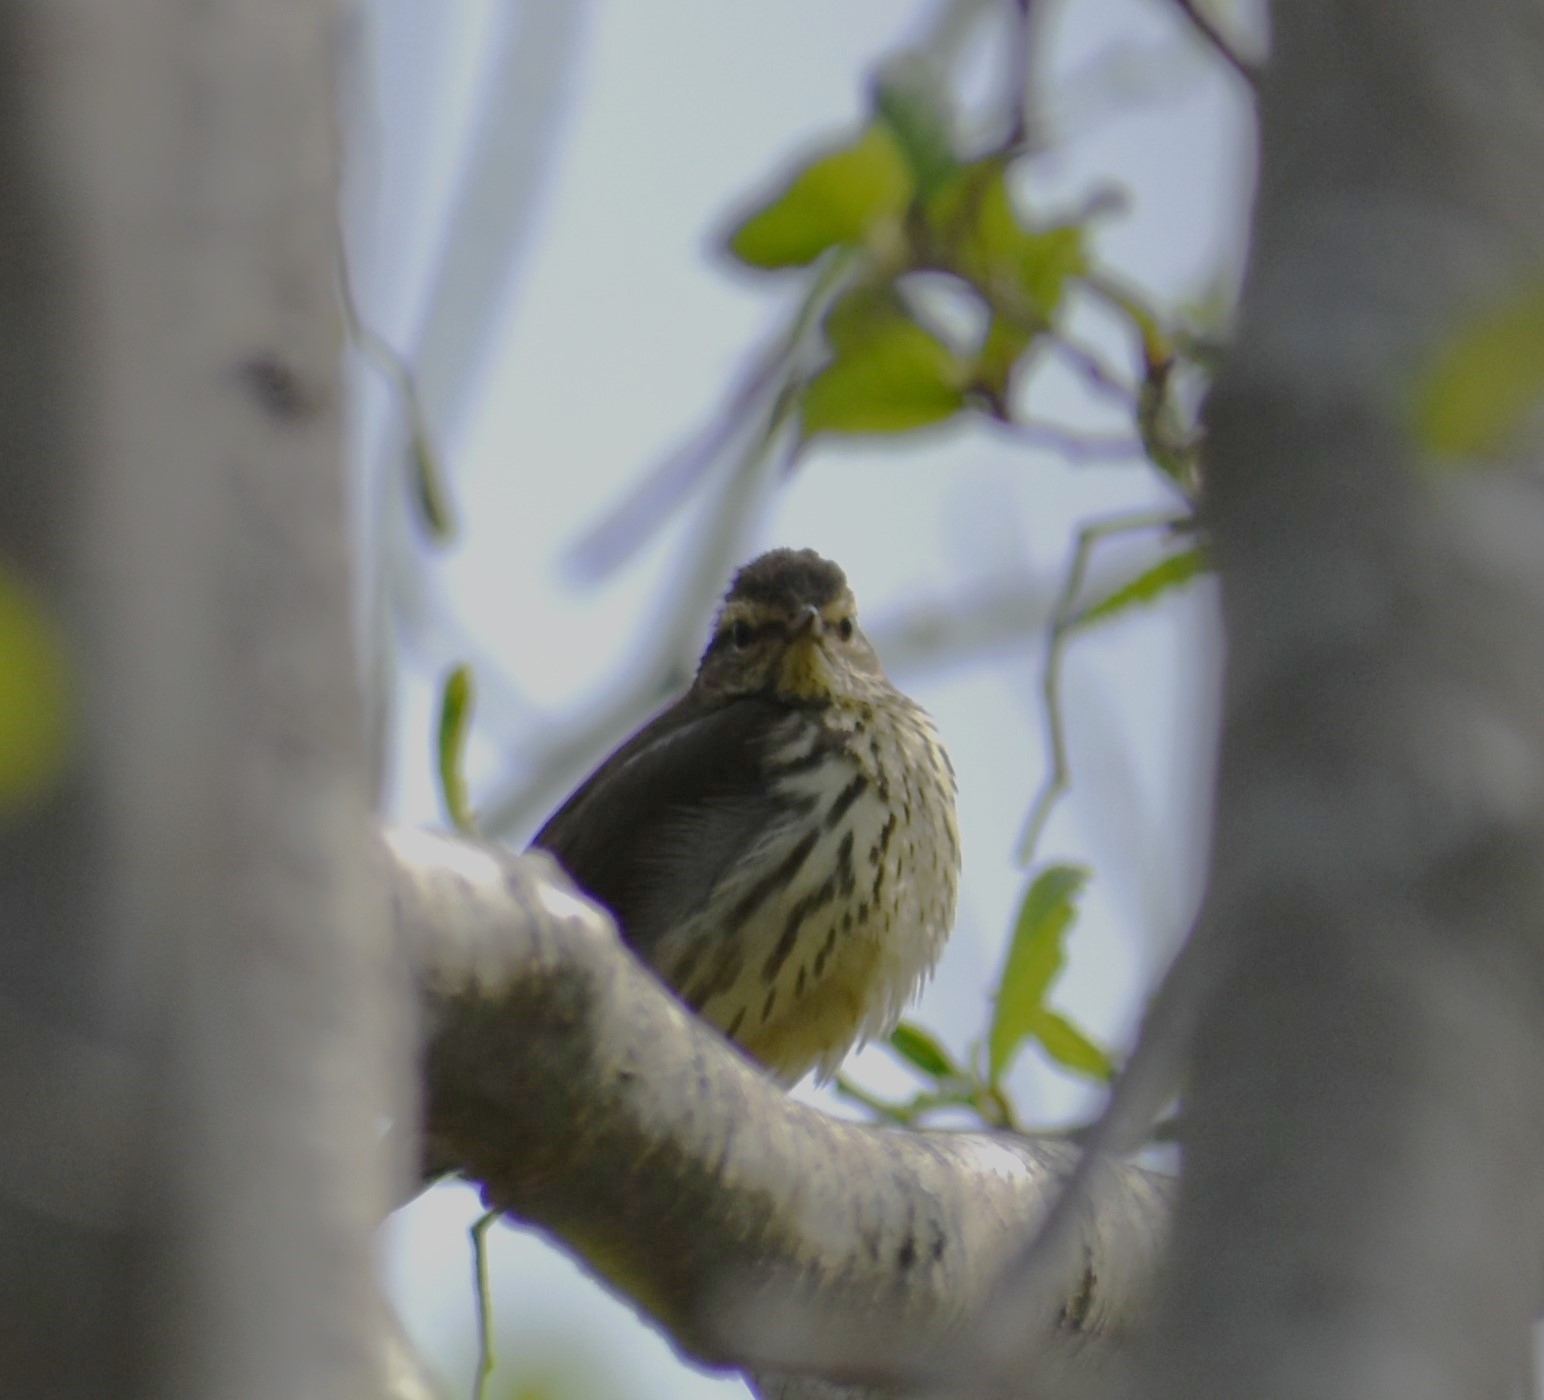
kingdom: Animalia
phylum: Chordata
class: Aves
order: Passeriformes
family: Parulidae
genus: Parkesia
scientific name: Parkesia noveboracensis
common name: Northern waterthrush
